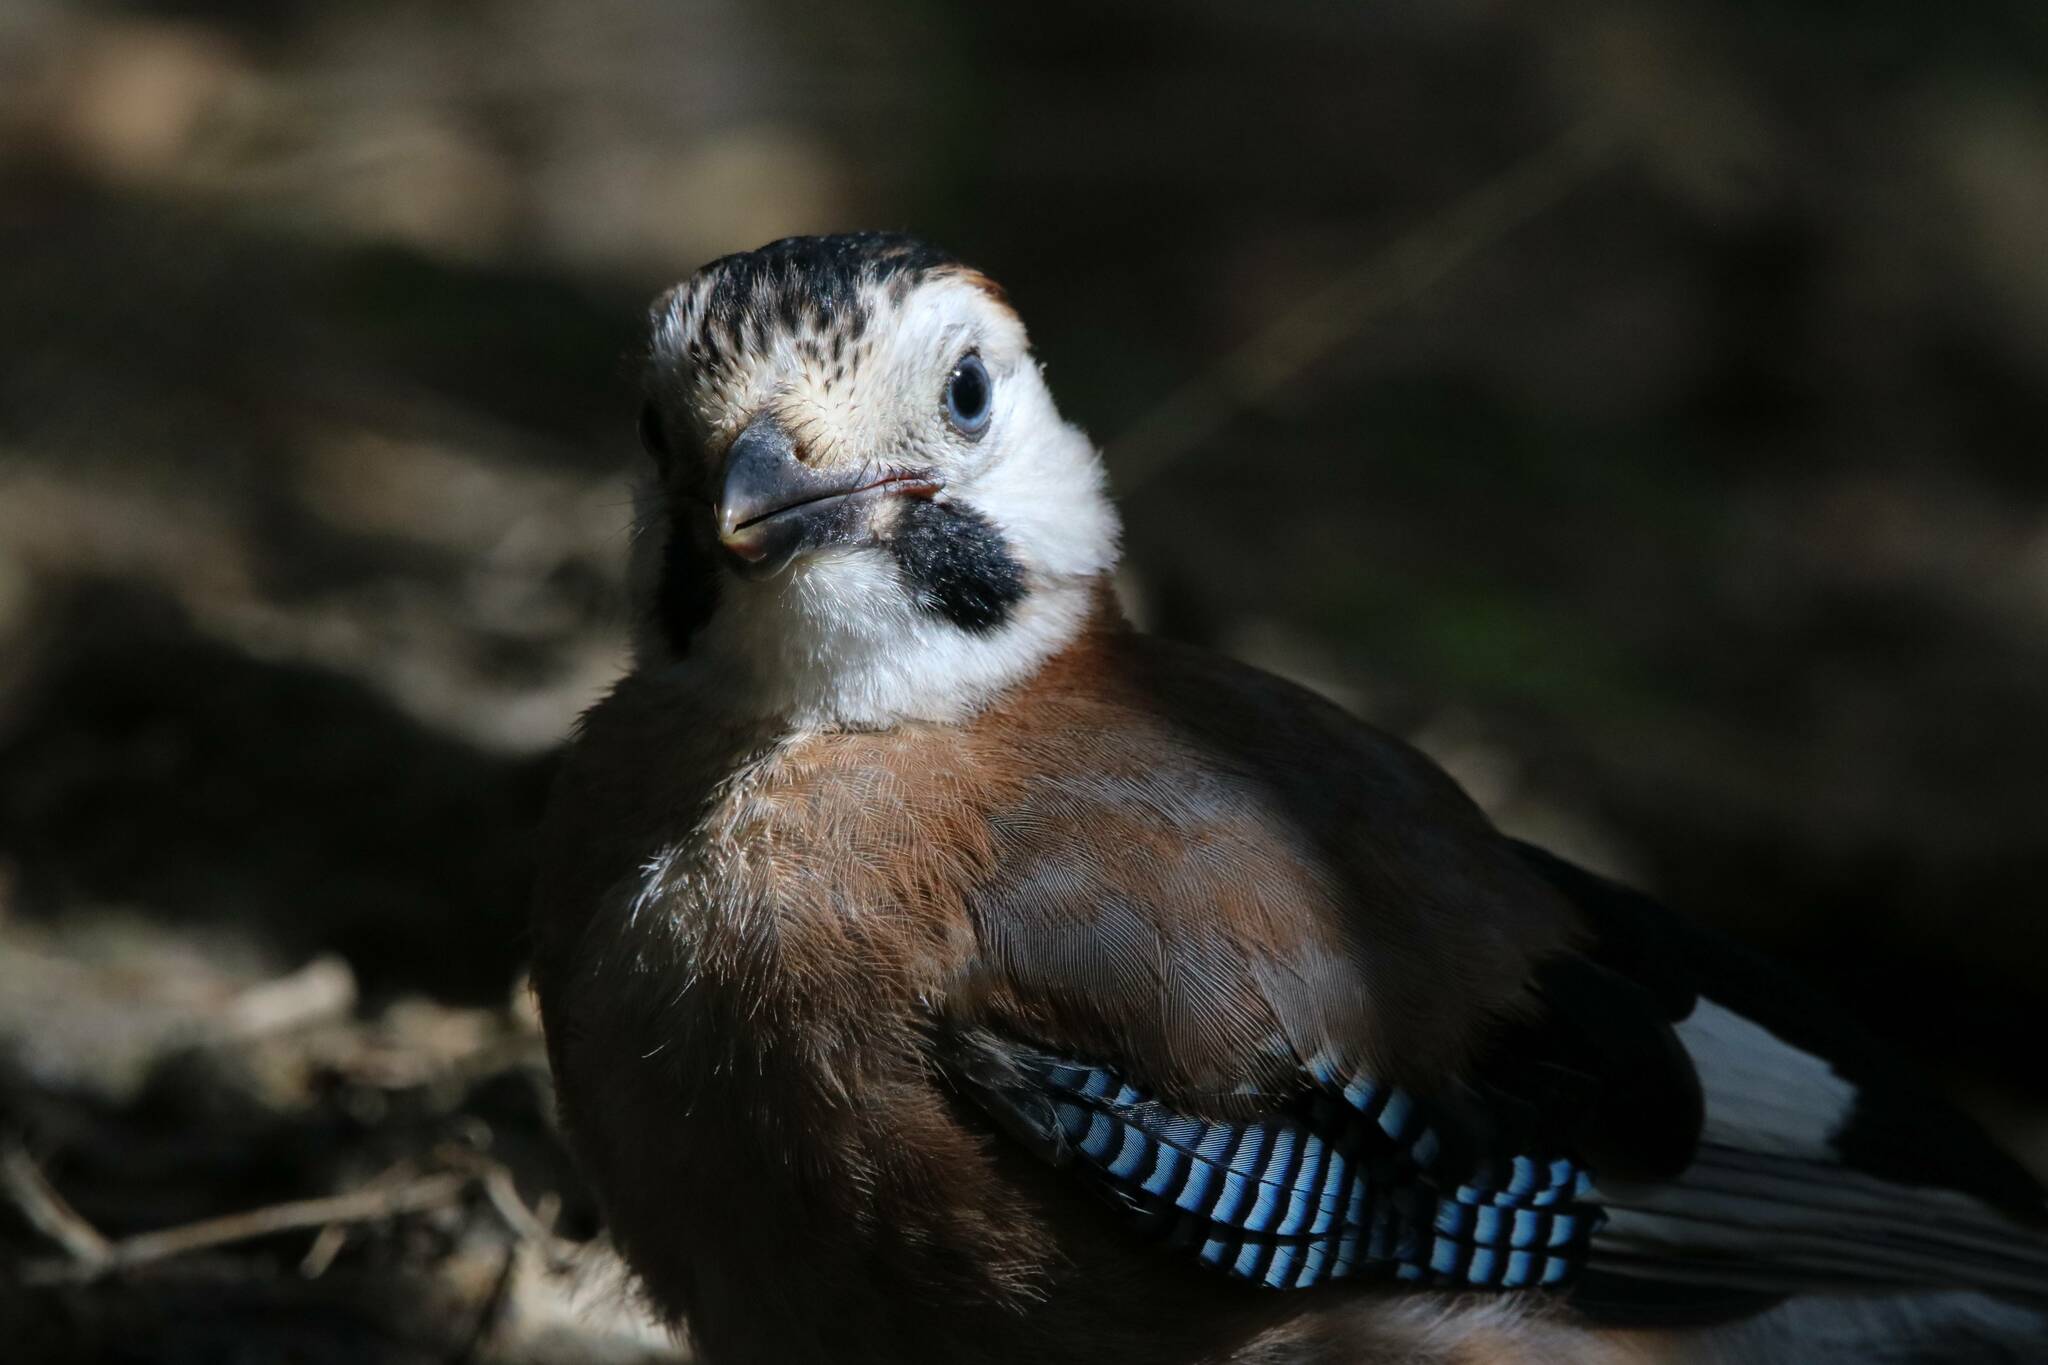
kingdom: Animalia
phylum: Chordata
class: Aves
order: Passeriformes
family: Corvidae
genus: Garrulus
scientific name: Garrulus glandarius
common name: Eurasian jay
